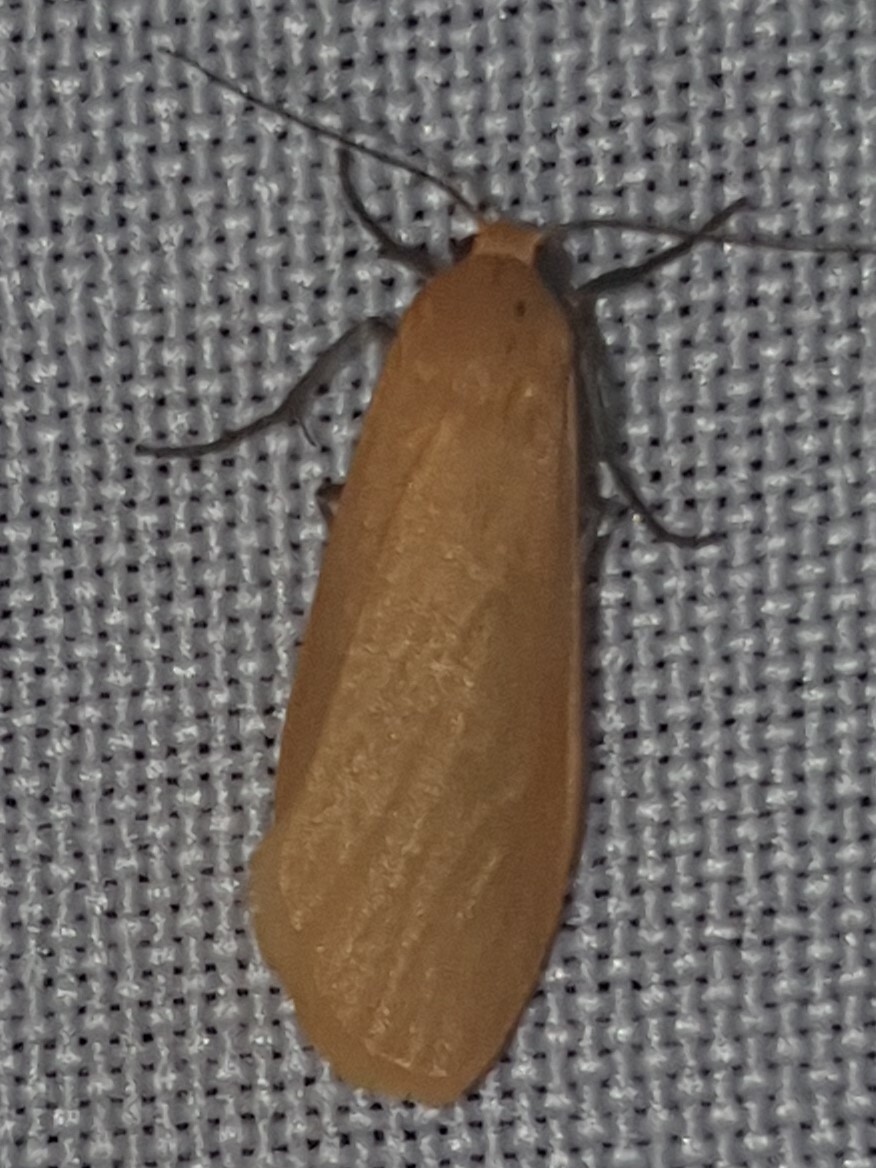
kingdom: Animalia
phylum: Arthropoda
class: Insecta
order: Lepidoptera
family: Erebidae
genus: Wittia
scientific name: Wittia sororcula
